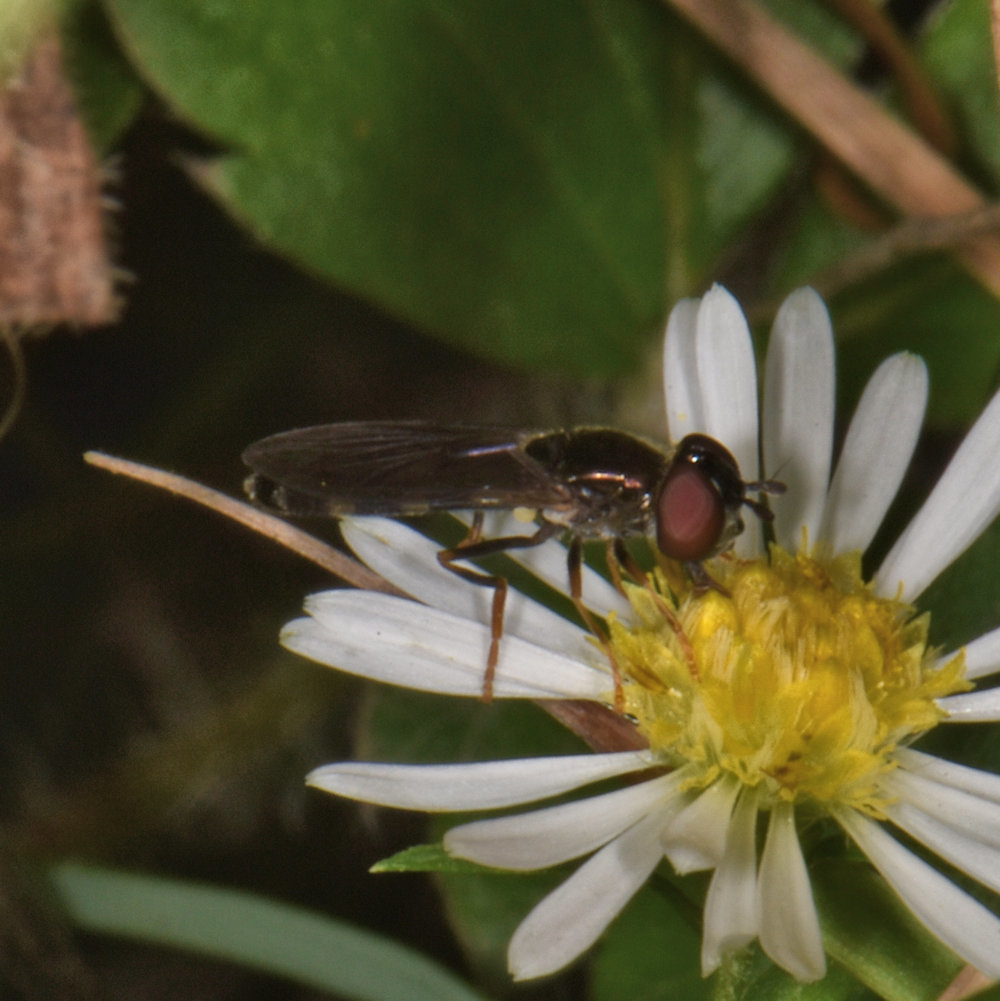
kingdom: Animalia
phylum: Arthropoda
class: Insecta
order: Diptera
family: Syrphidae
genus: Pyrophaena
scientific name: Pyrophaena rosarum
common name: Fourspot sedgesitter
